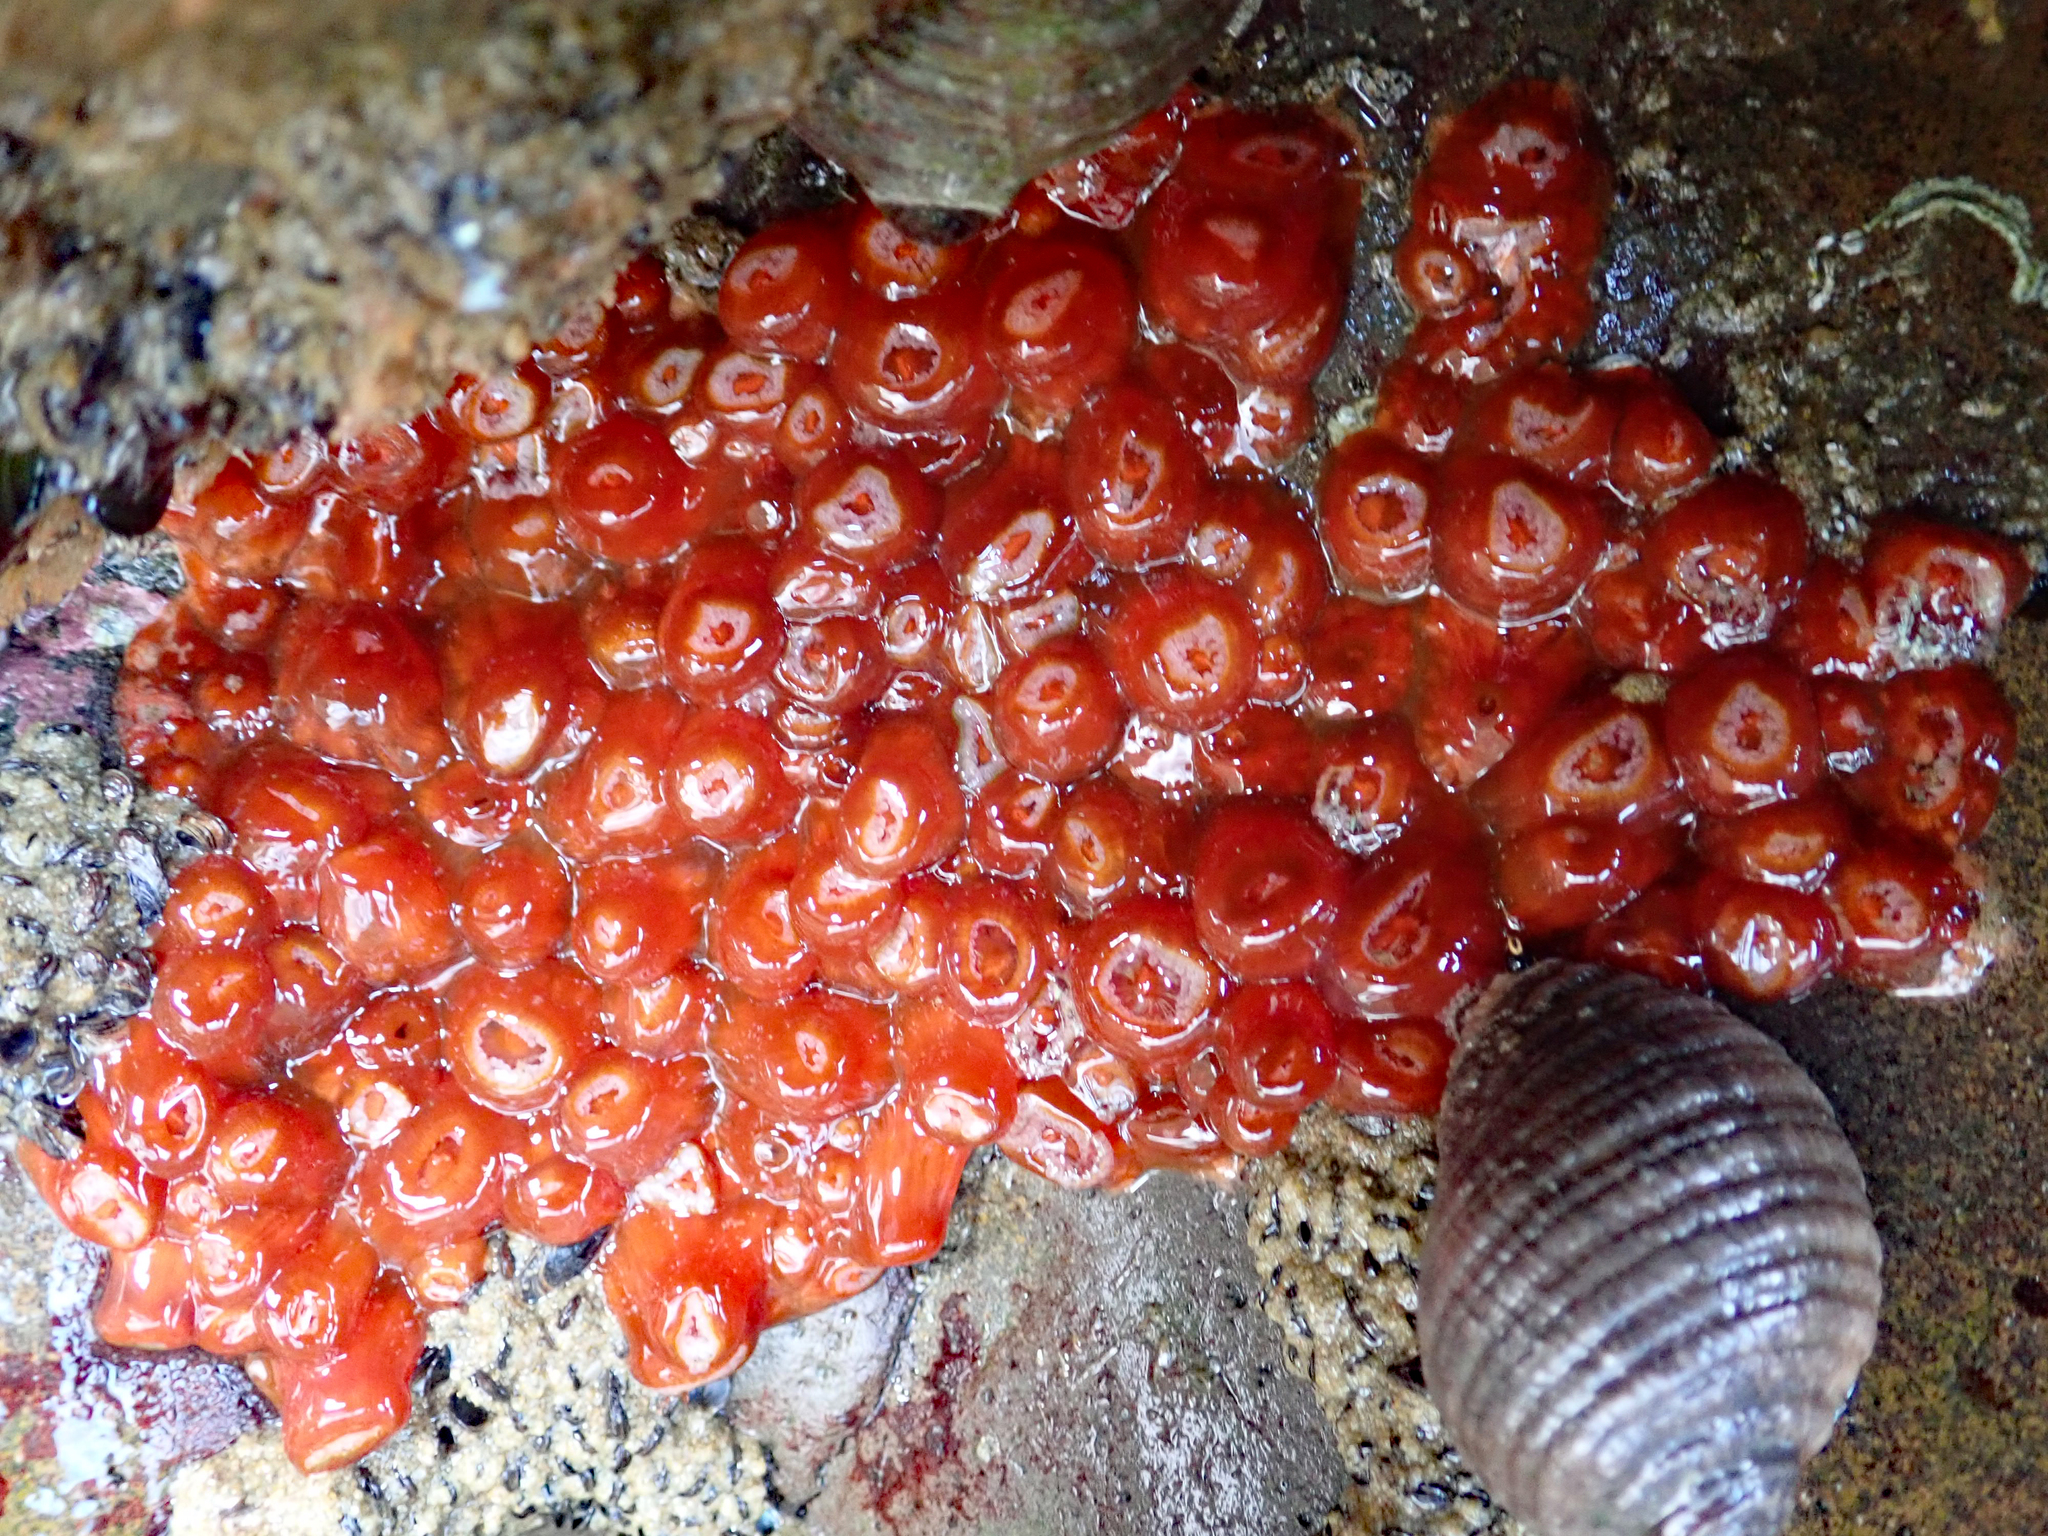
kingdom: Animalia
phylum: Cnidaria
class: Anthozoa
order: Corallimorpharia
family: Corallimorphidae
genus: Corynactis
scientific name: Corynactis australis
